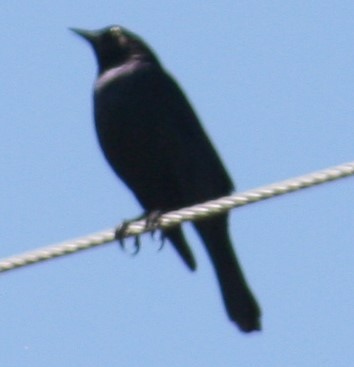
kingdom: Animalia
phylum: Chordata
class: Aves
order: Passeriformes
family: Icteridae
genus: Euphagus
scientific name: Euphagus cyanocephalus
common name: Brewer's blackbird
